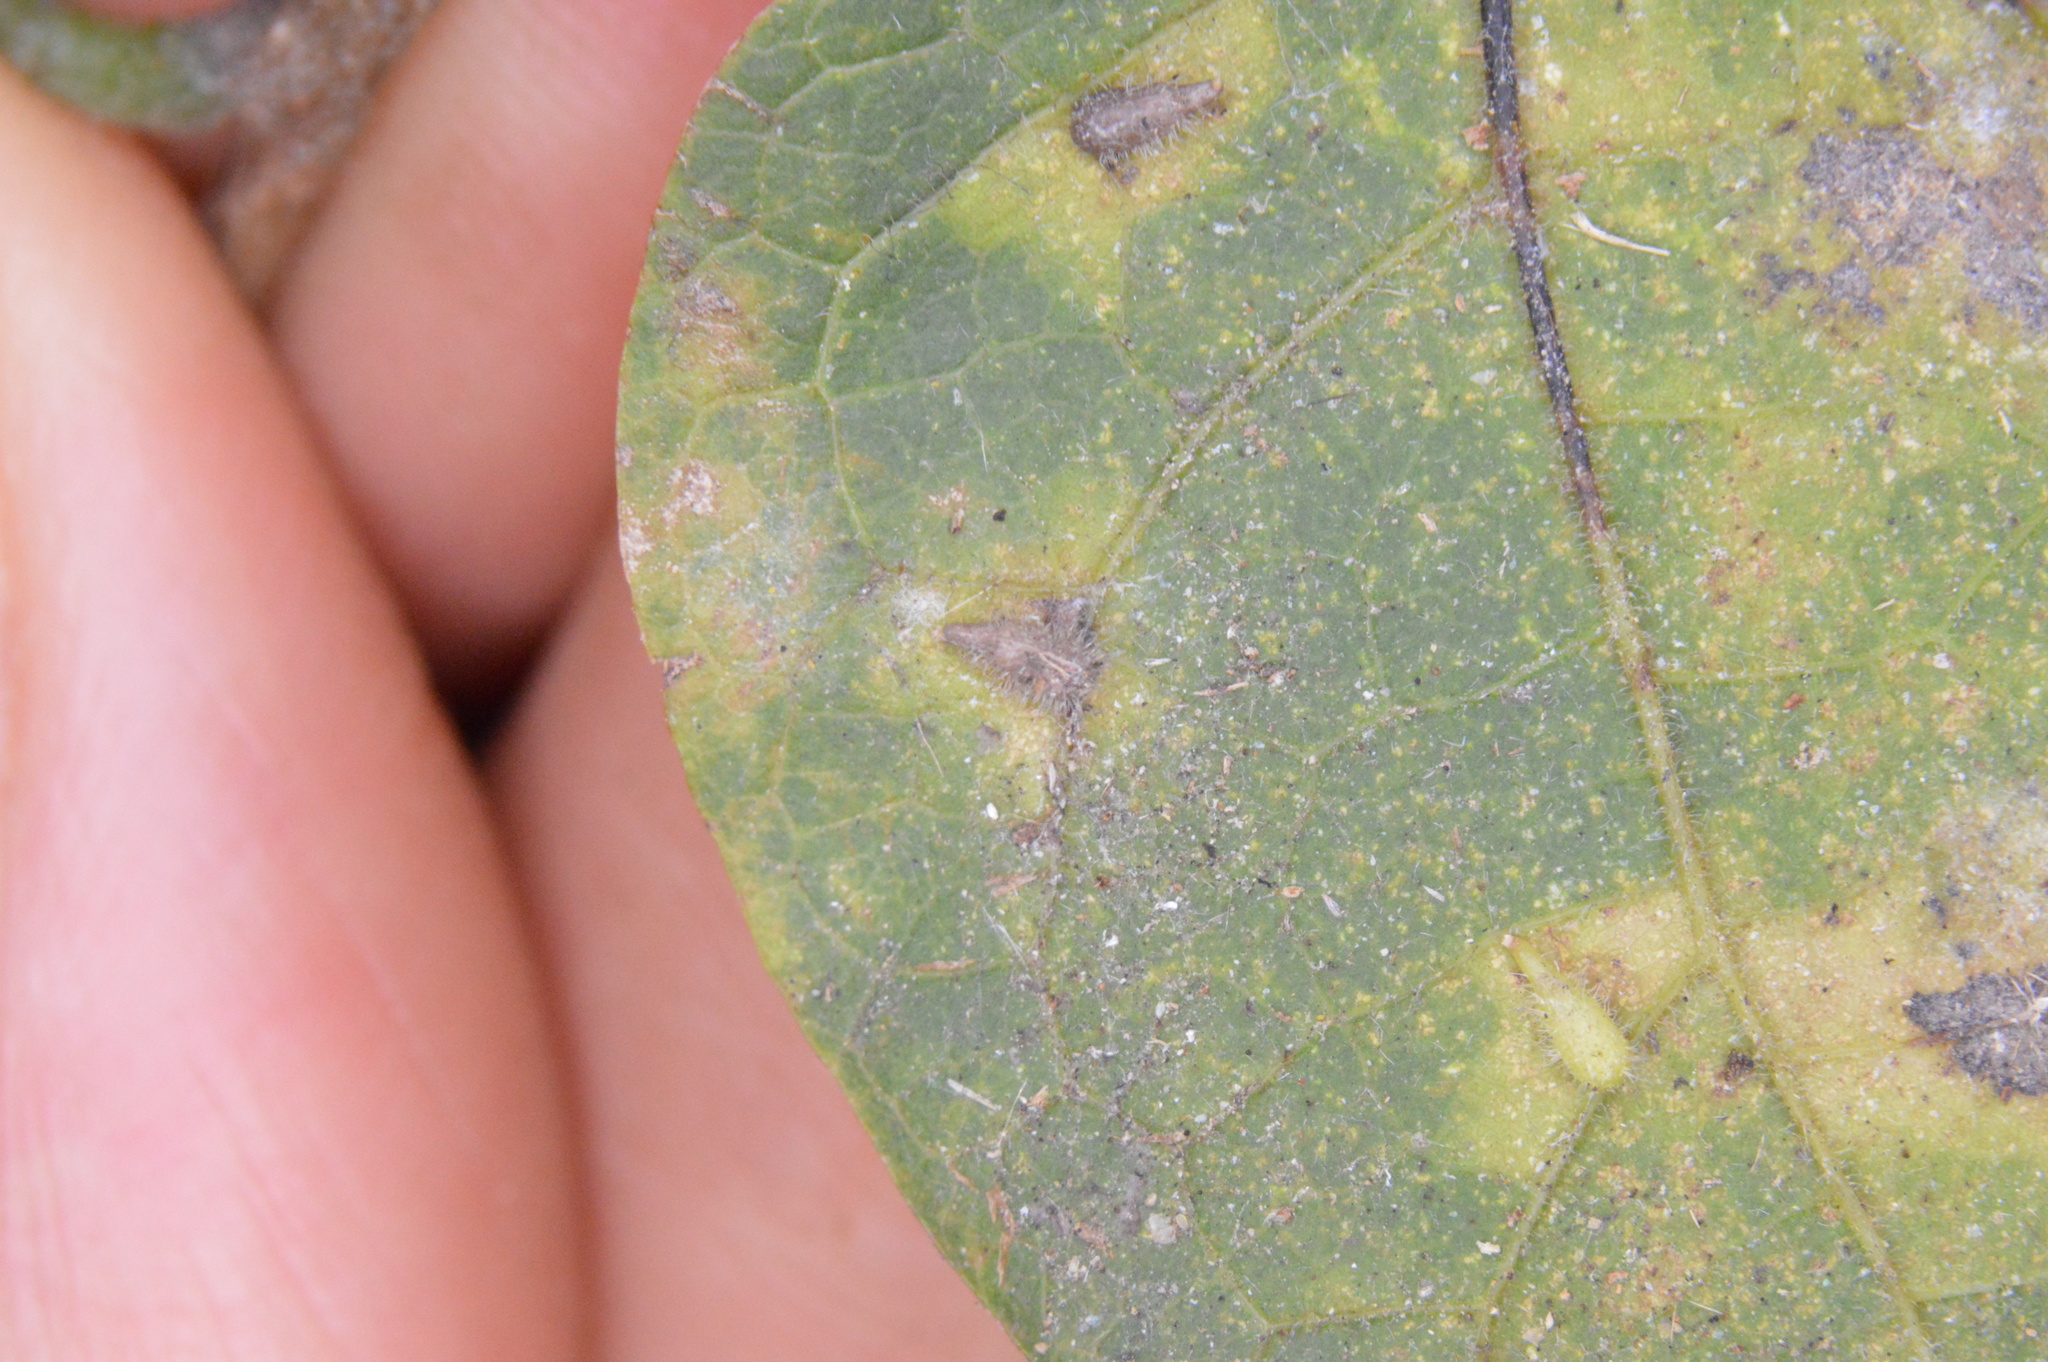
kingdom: Animalia
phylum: Arthropoda
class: Insecta
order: Diptera
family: Cecidomyiidae
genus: Celticecis
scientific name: Celticecis supina
